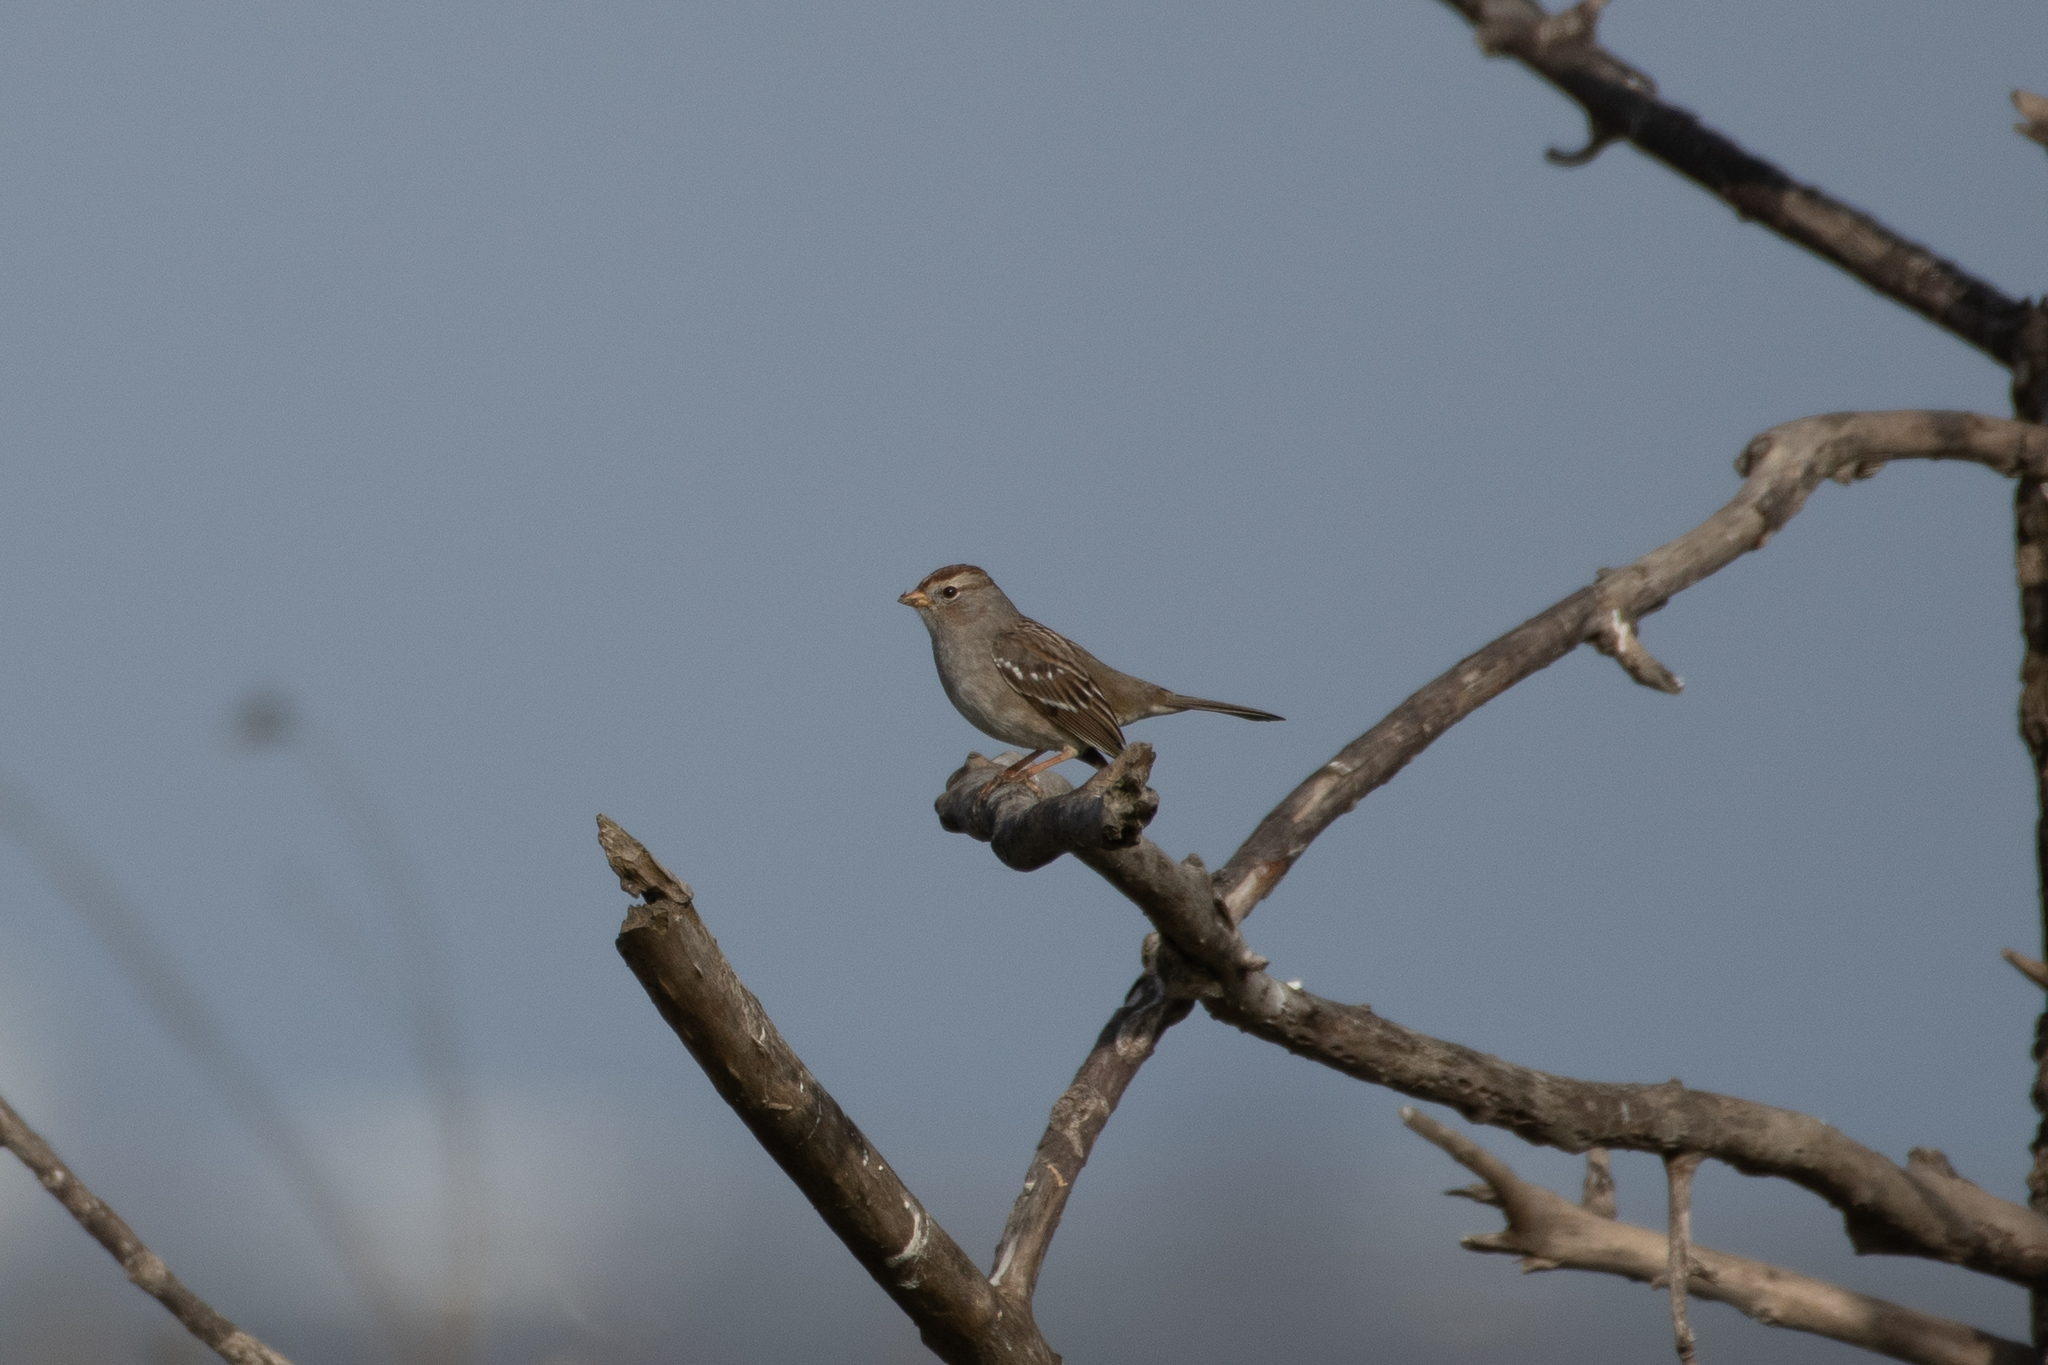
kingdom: Animalia
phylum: Chordata
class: Aves
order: Passeriformes
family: Passerellidae
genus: Zonotrichia
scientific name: Zonotrichia leucophrys
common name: White-crowned sparrow
